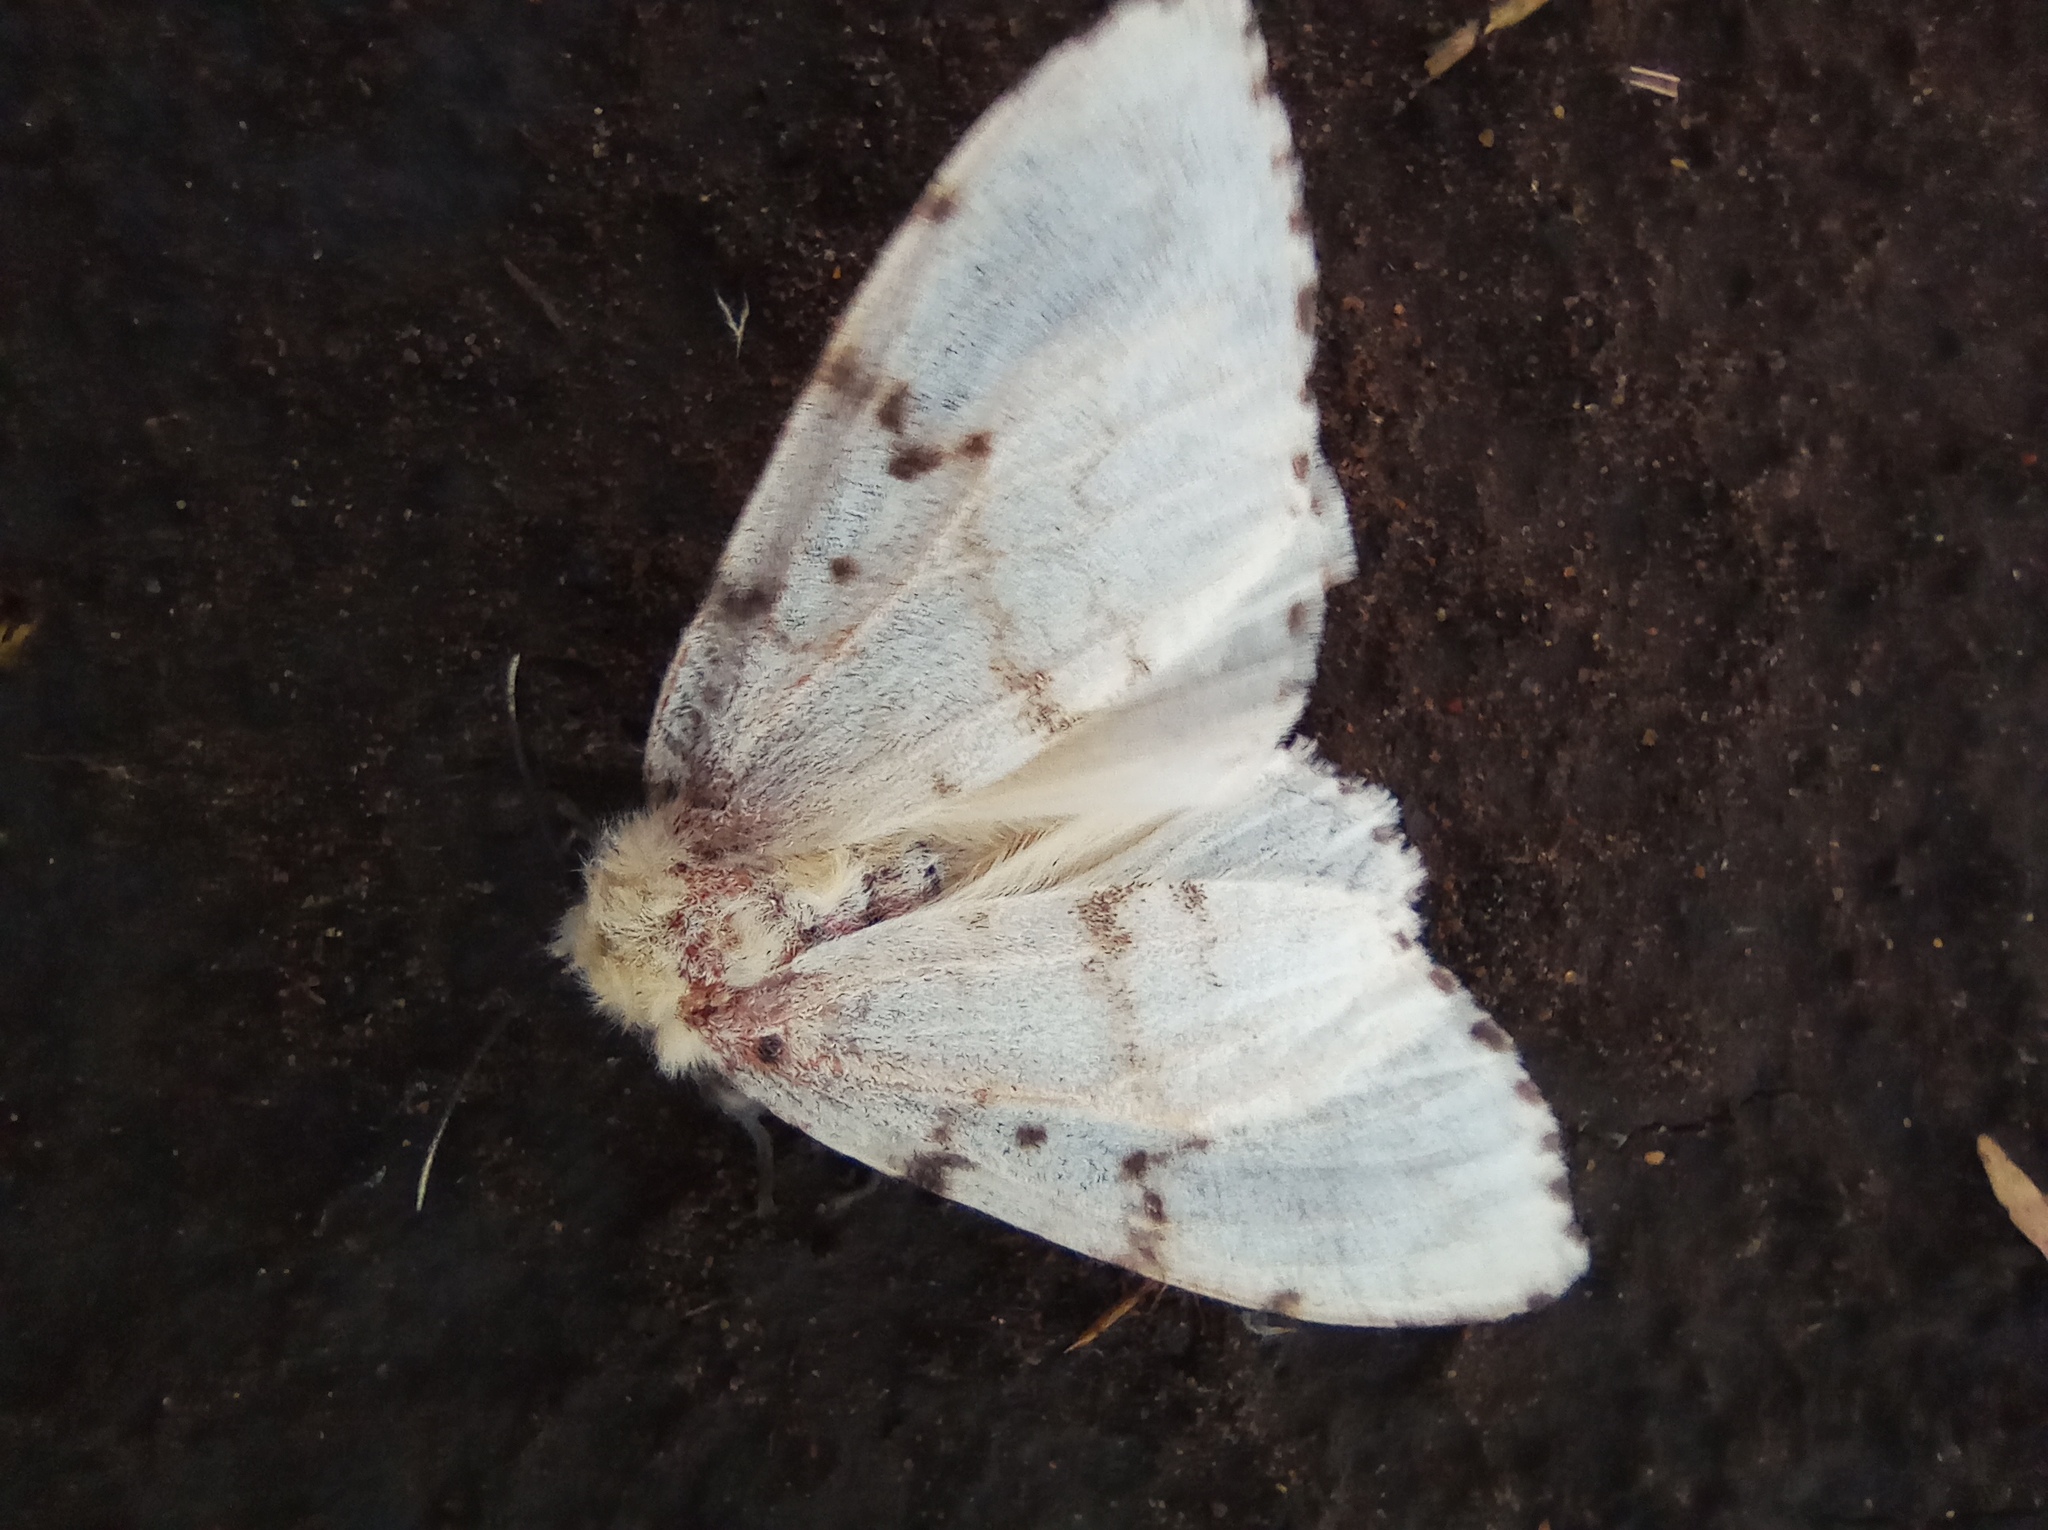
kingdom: Animalia
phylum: Arthropoda
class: Insecta
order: Lepidoptera
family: Erebidae
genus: Lymantria
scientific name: Lymantria dispar
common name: Gypsy moth
